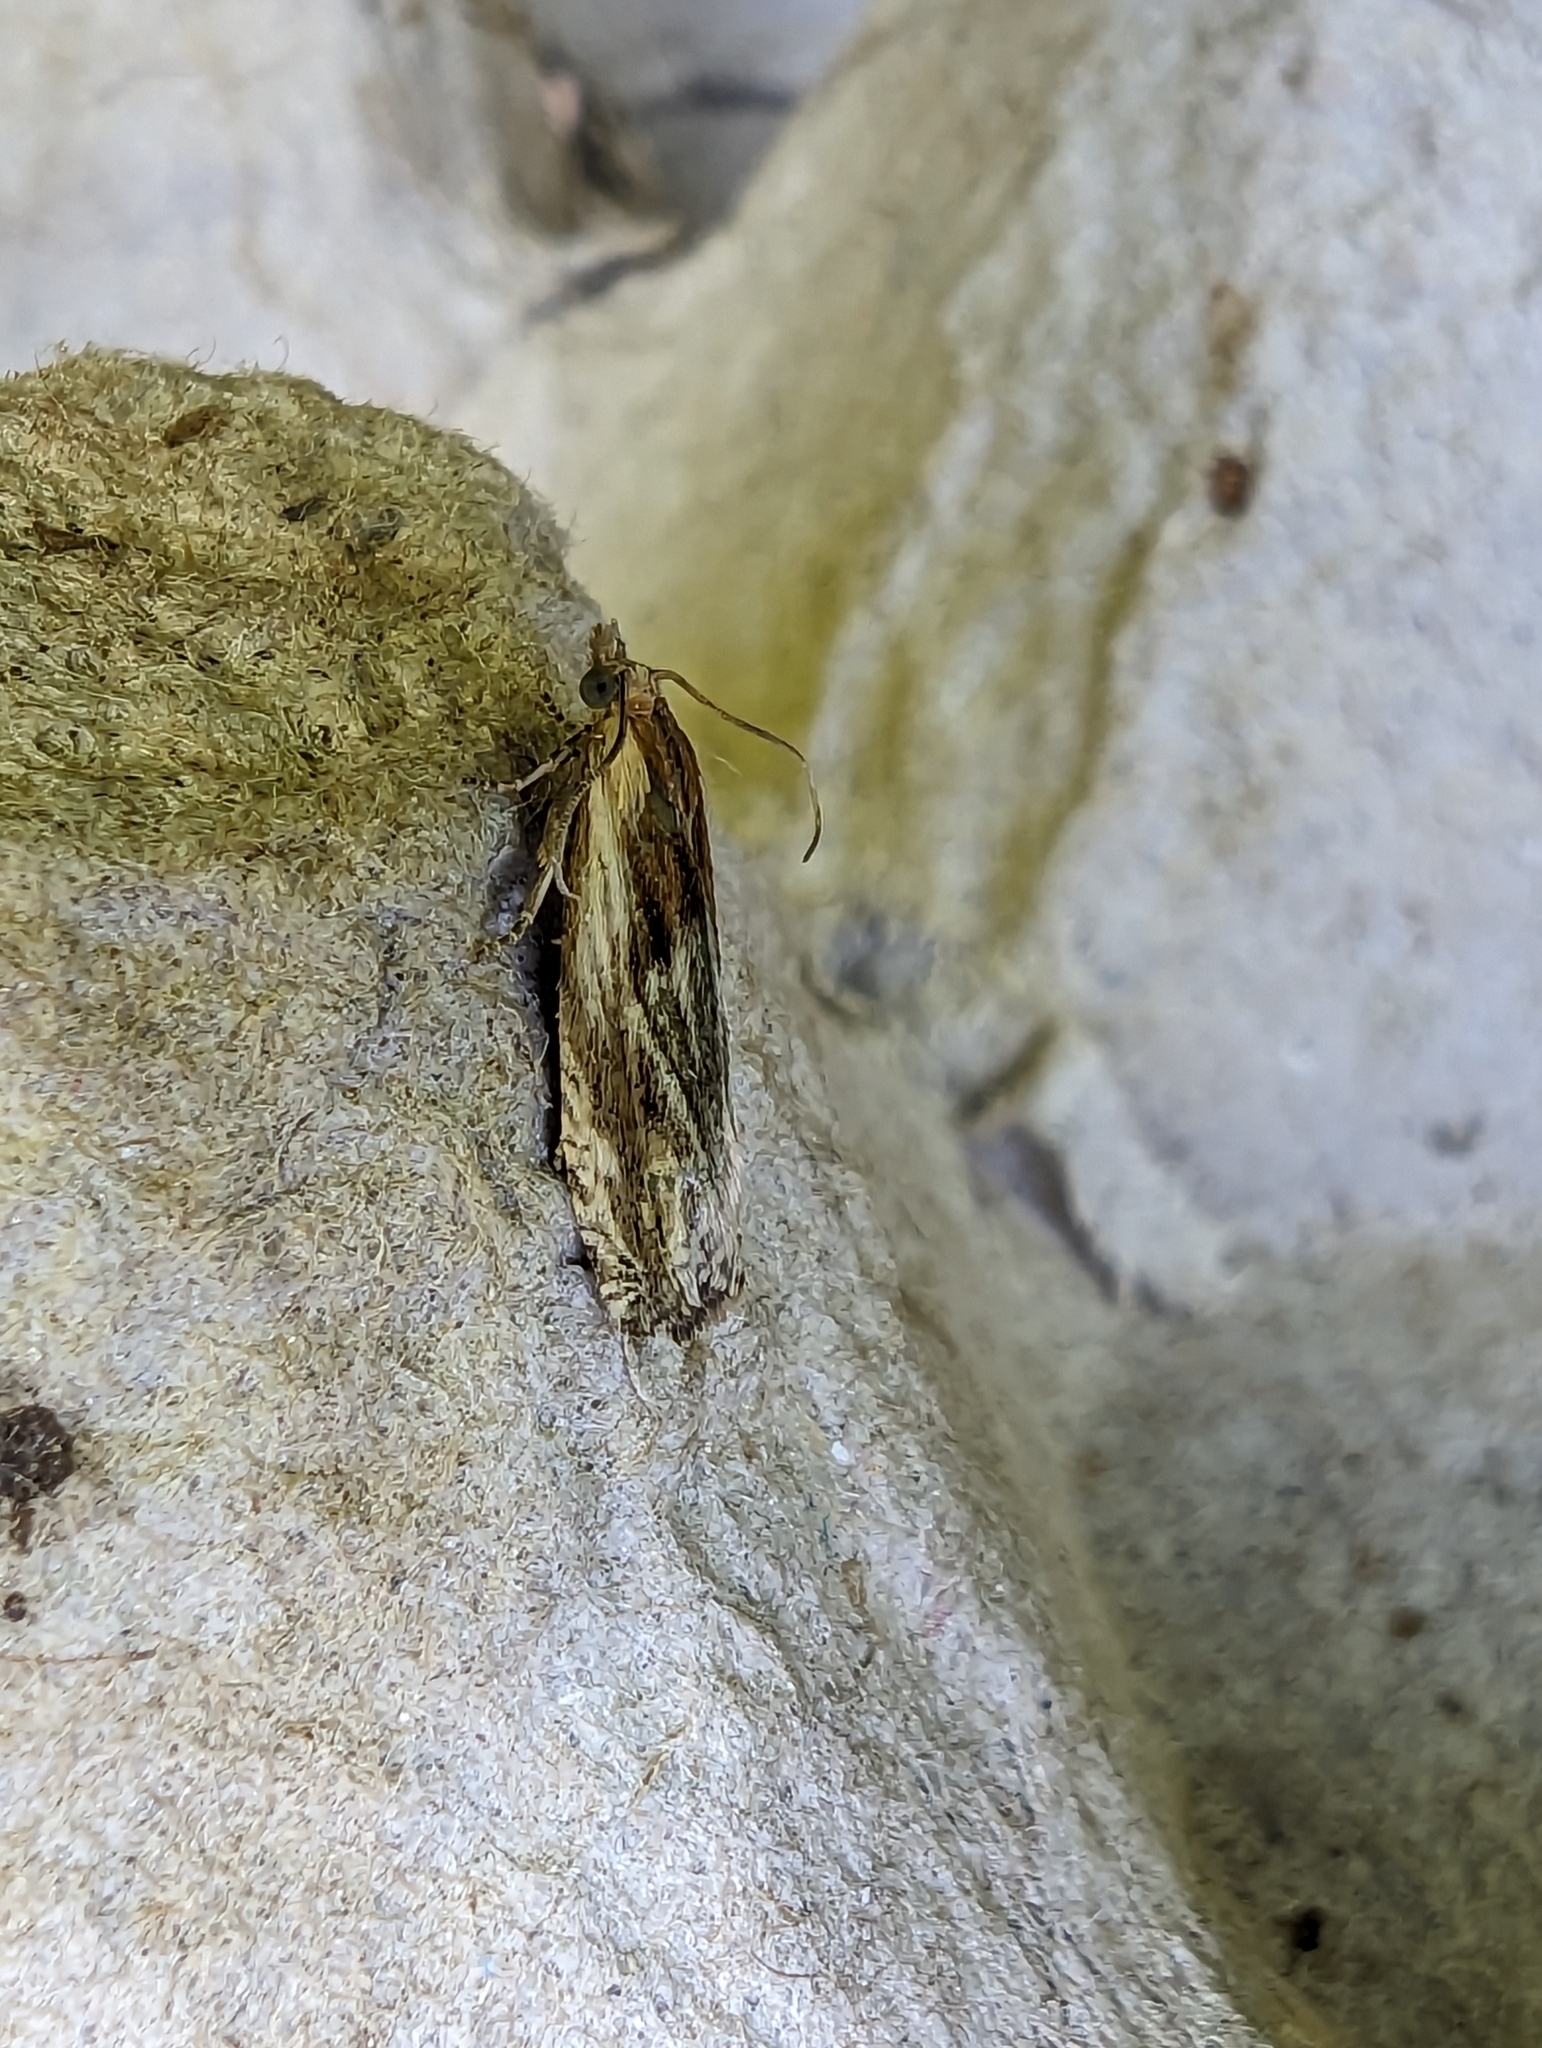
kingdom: Animalia
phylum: Arthropoda
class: Insecta
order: Lepidoptera
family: Tortricidae
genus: Eucosma
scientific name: Eucosma cana
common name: Hoary belle
